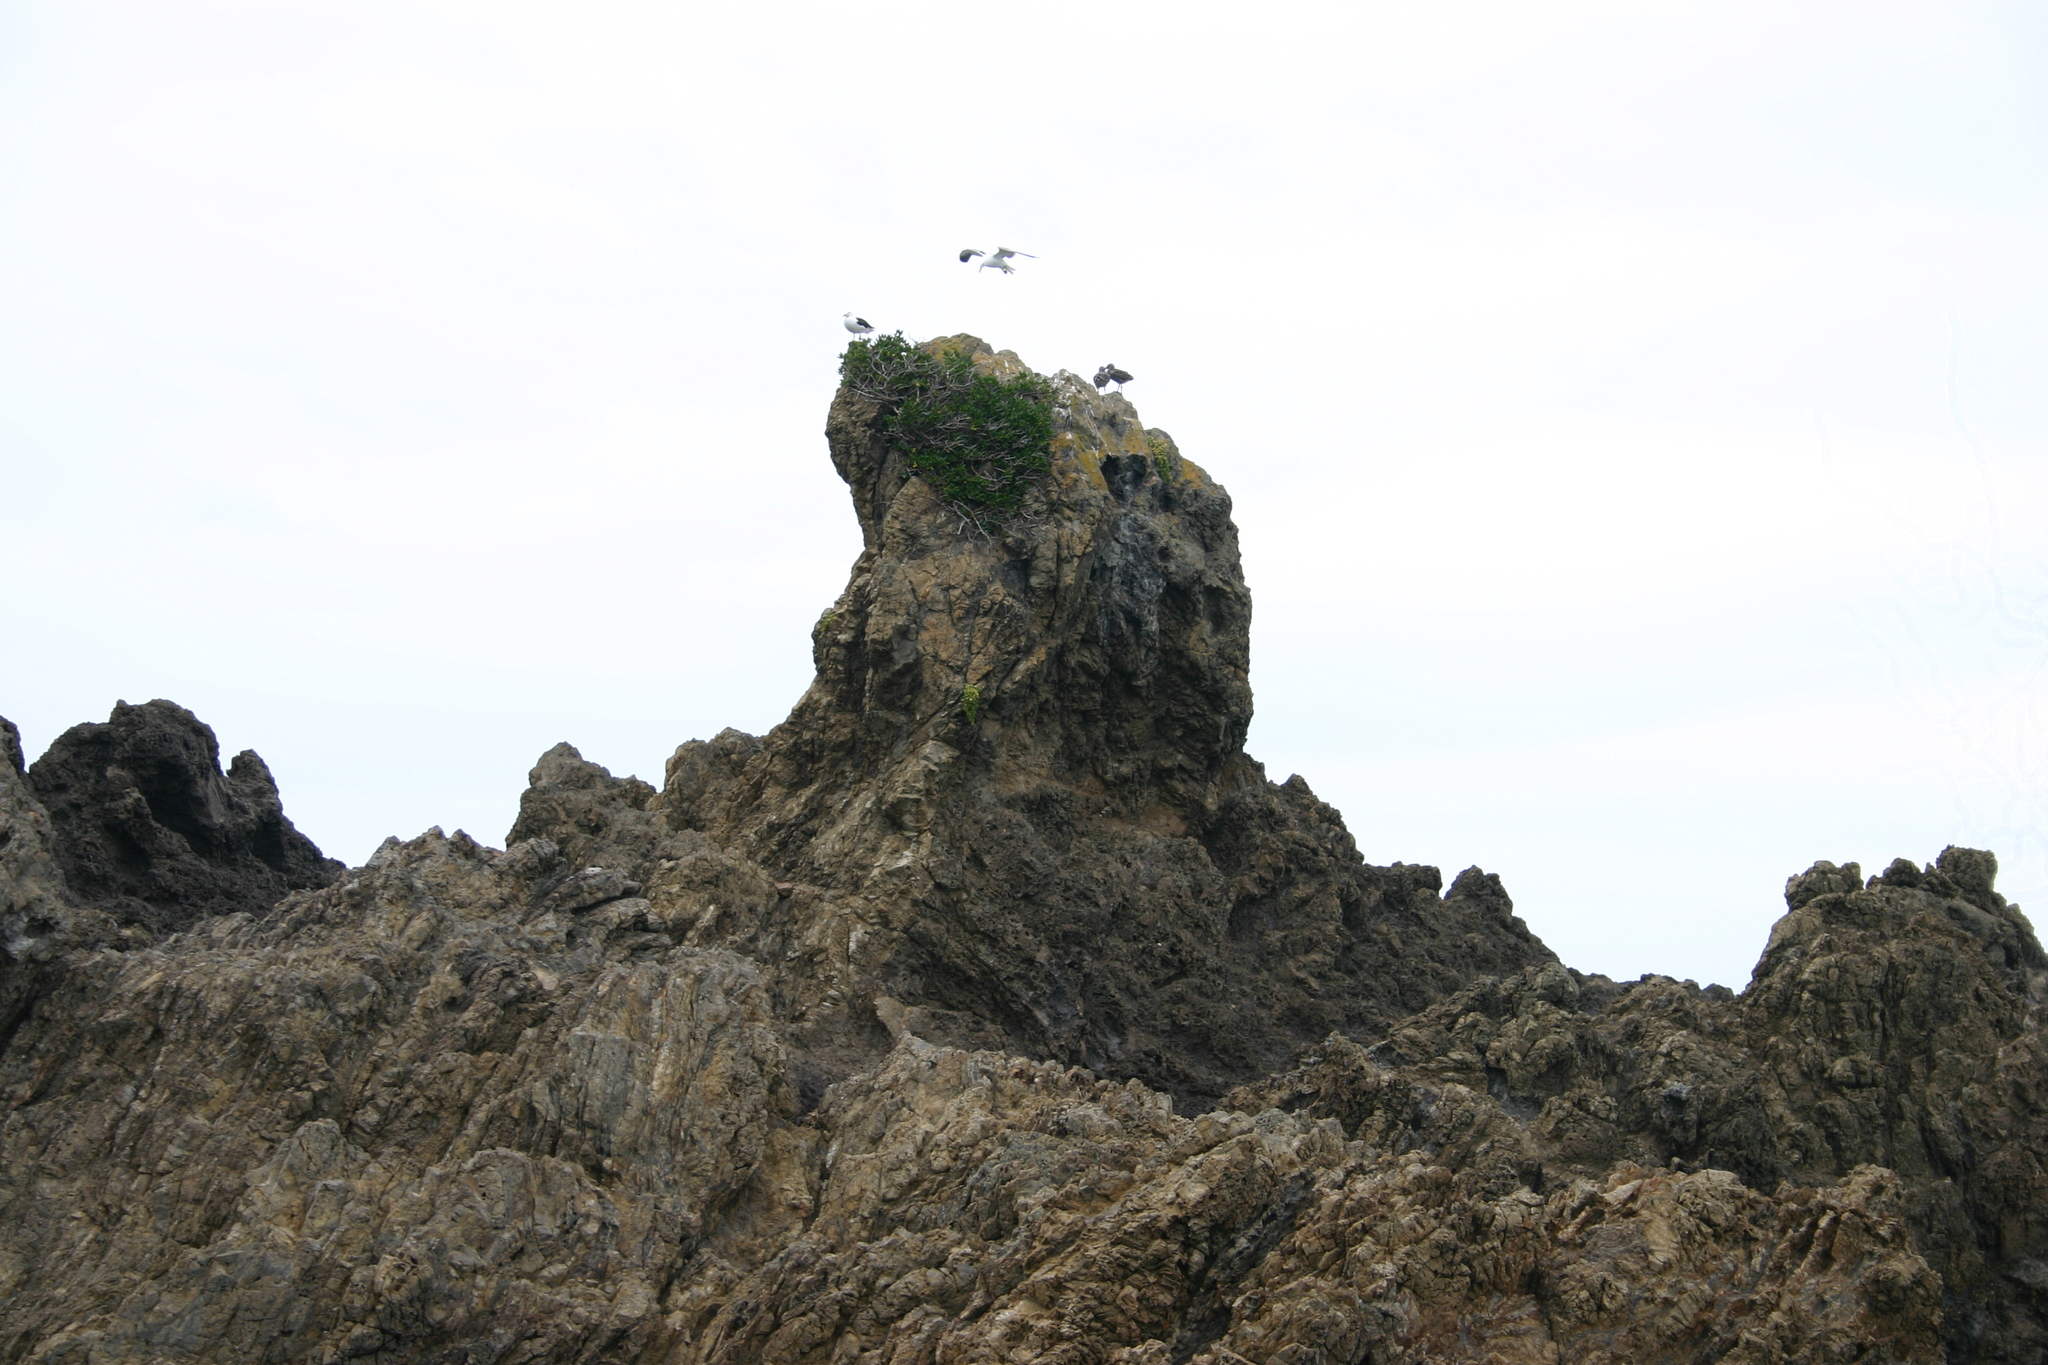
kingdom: Animalia
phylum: Chordata
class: Aves
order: Charadriiformes
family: Laridae
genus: Larus
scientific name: Larus dominicanus
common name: Kelp gull
